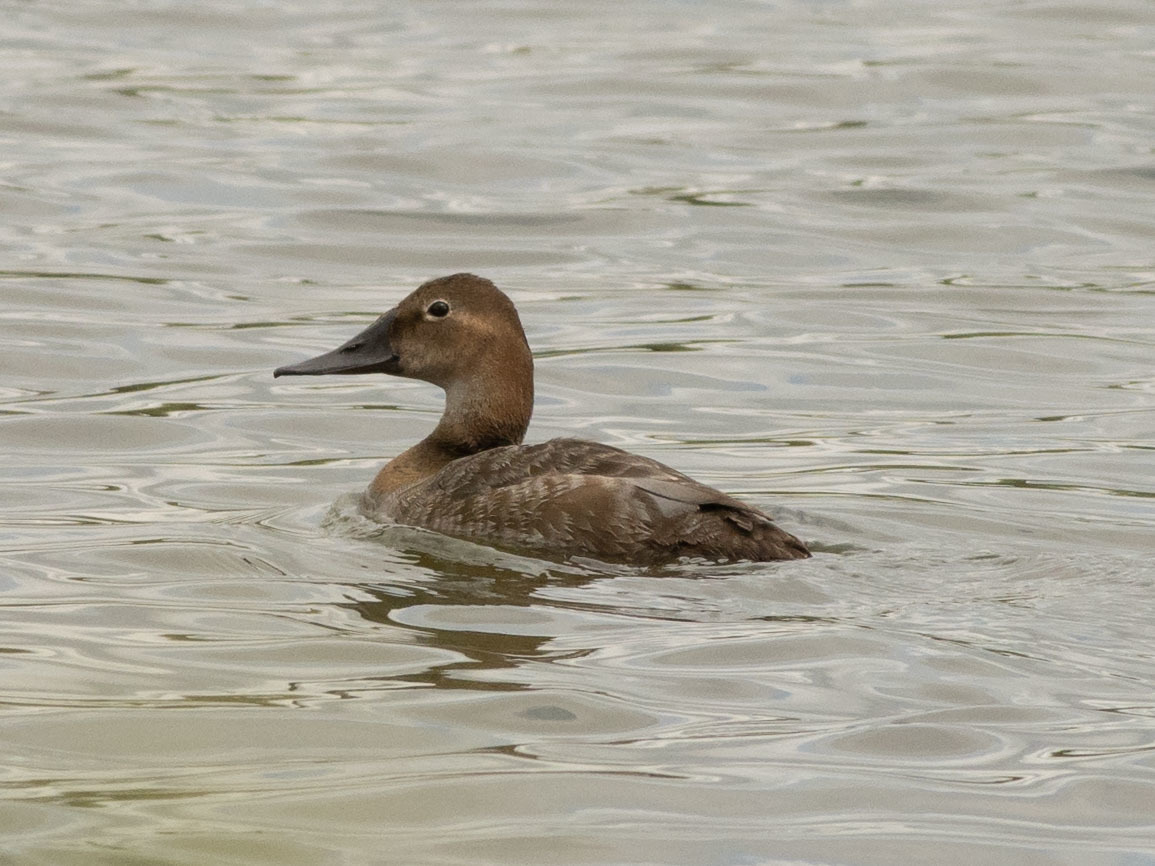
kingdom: Animalia
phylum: Chordata
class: Aves
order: Anseriformes
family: Anatidae
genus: Aythya
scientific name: Aythya valisineria
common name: Canvasback
